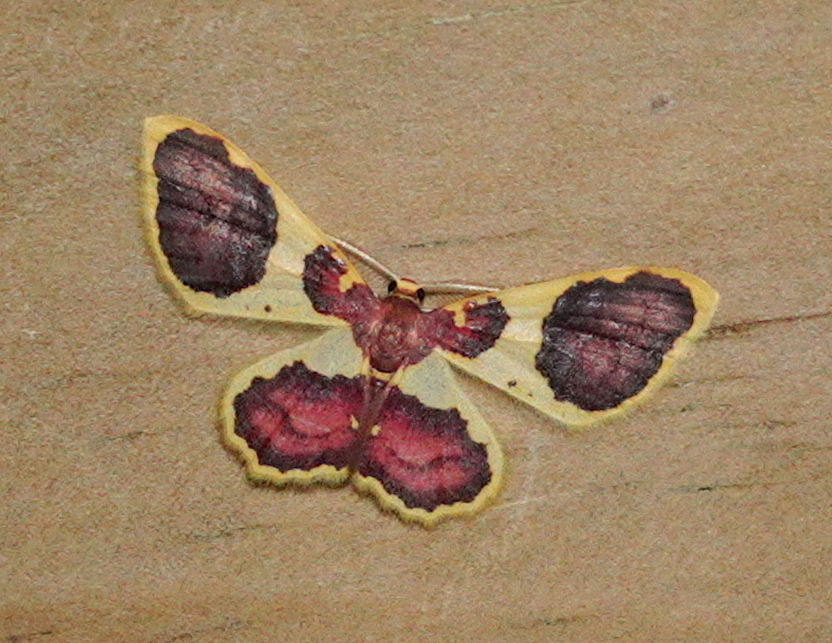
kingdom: Animalia
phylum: Arthropoda
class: Insecta
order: Lepidoptera
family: Geometridae
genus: Eois
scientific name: Eois scama
